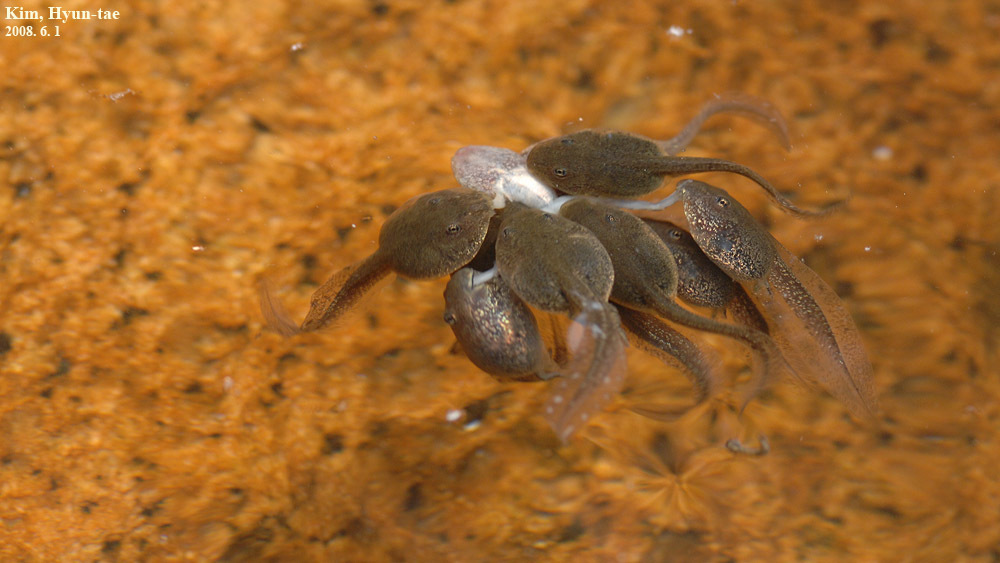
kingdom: Animalia
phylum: Chordata
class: Amphibia
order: Anura
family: Ranidae
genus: Rana
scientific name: Rana uenoi
